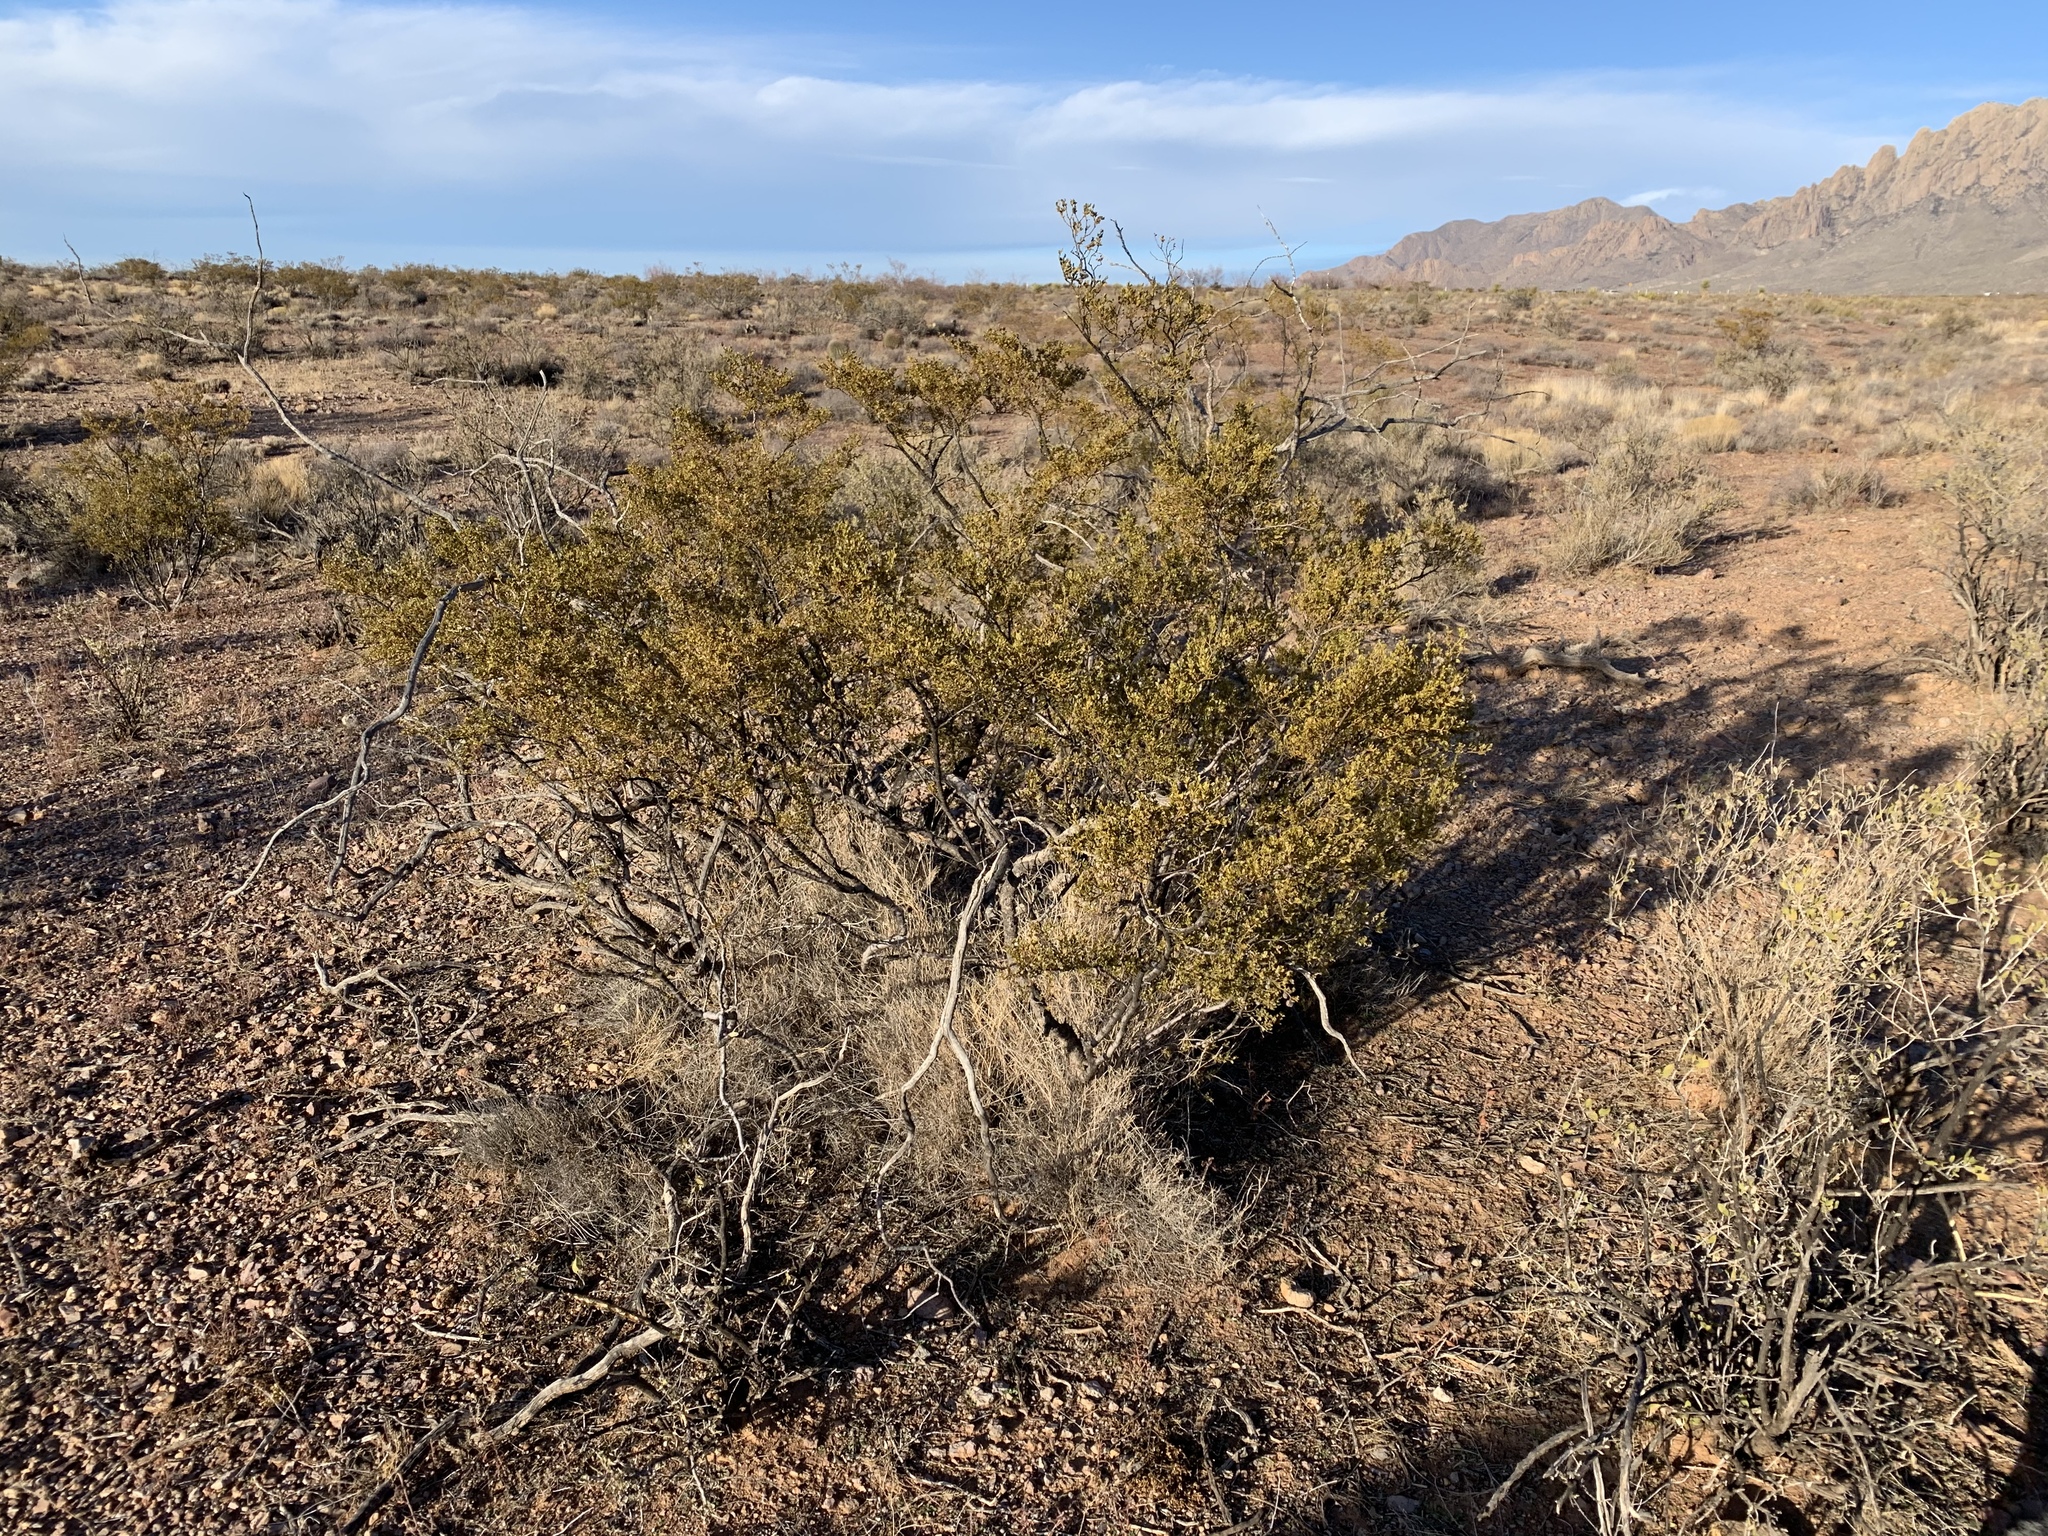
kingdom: Plantae
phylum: Tracheophyta
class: Magnoliopsida
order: Zygophyllales
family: Zygophyllaceae
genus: Larrea
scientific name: Larrea tridentata
